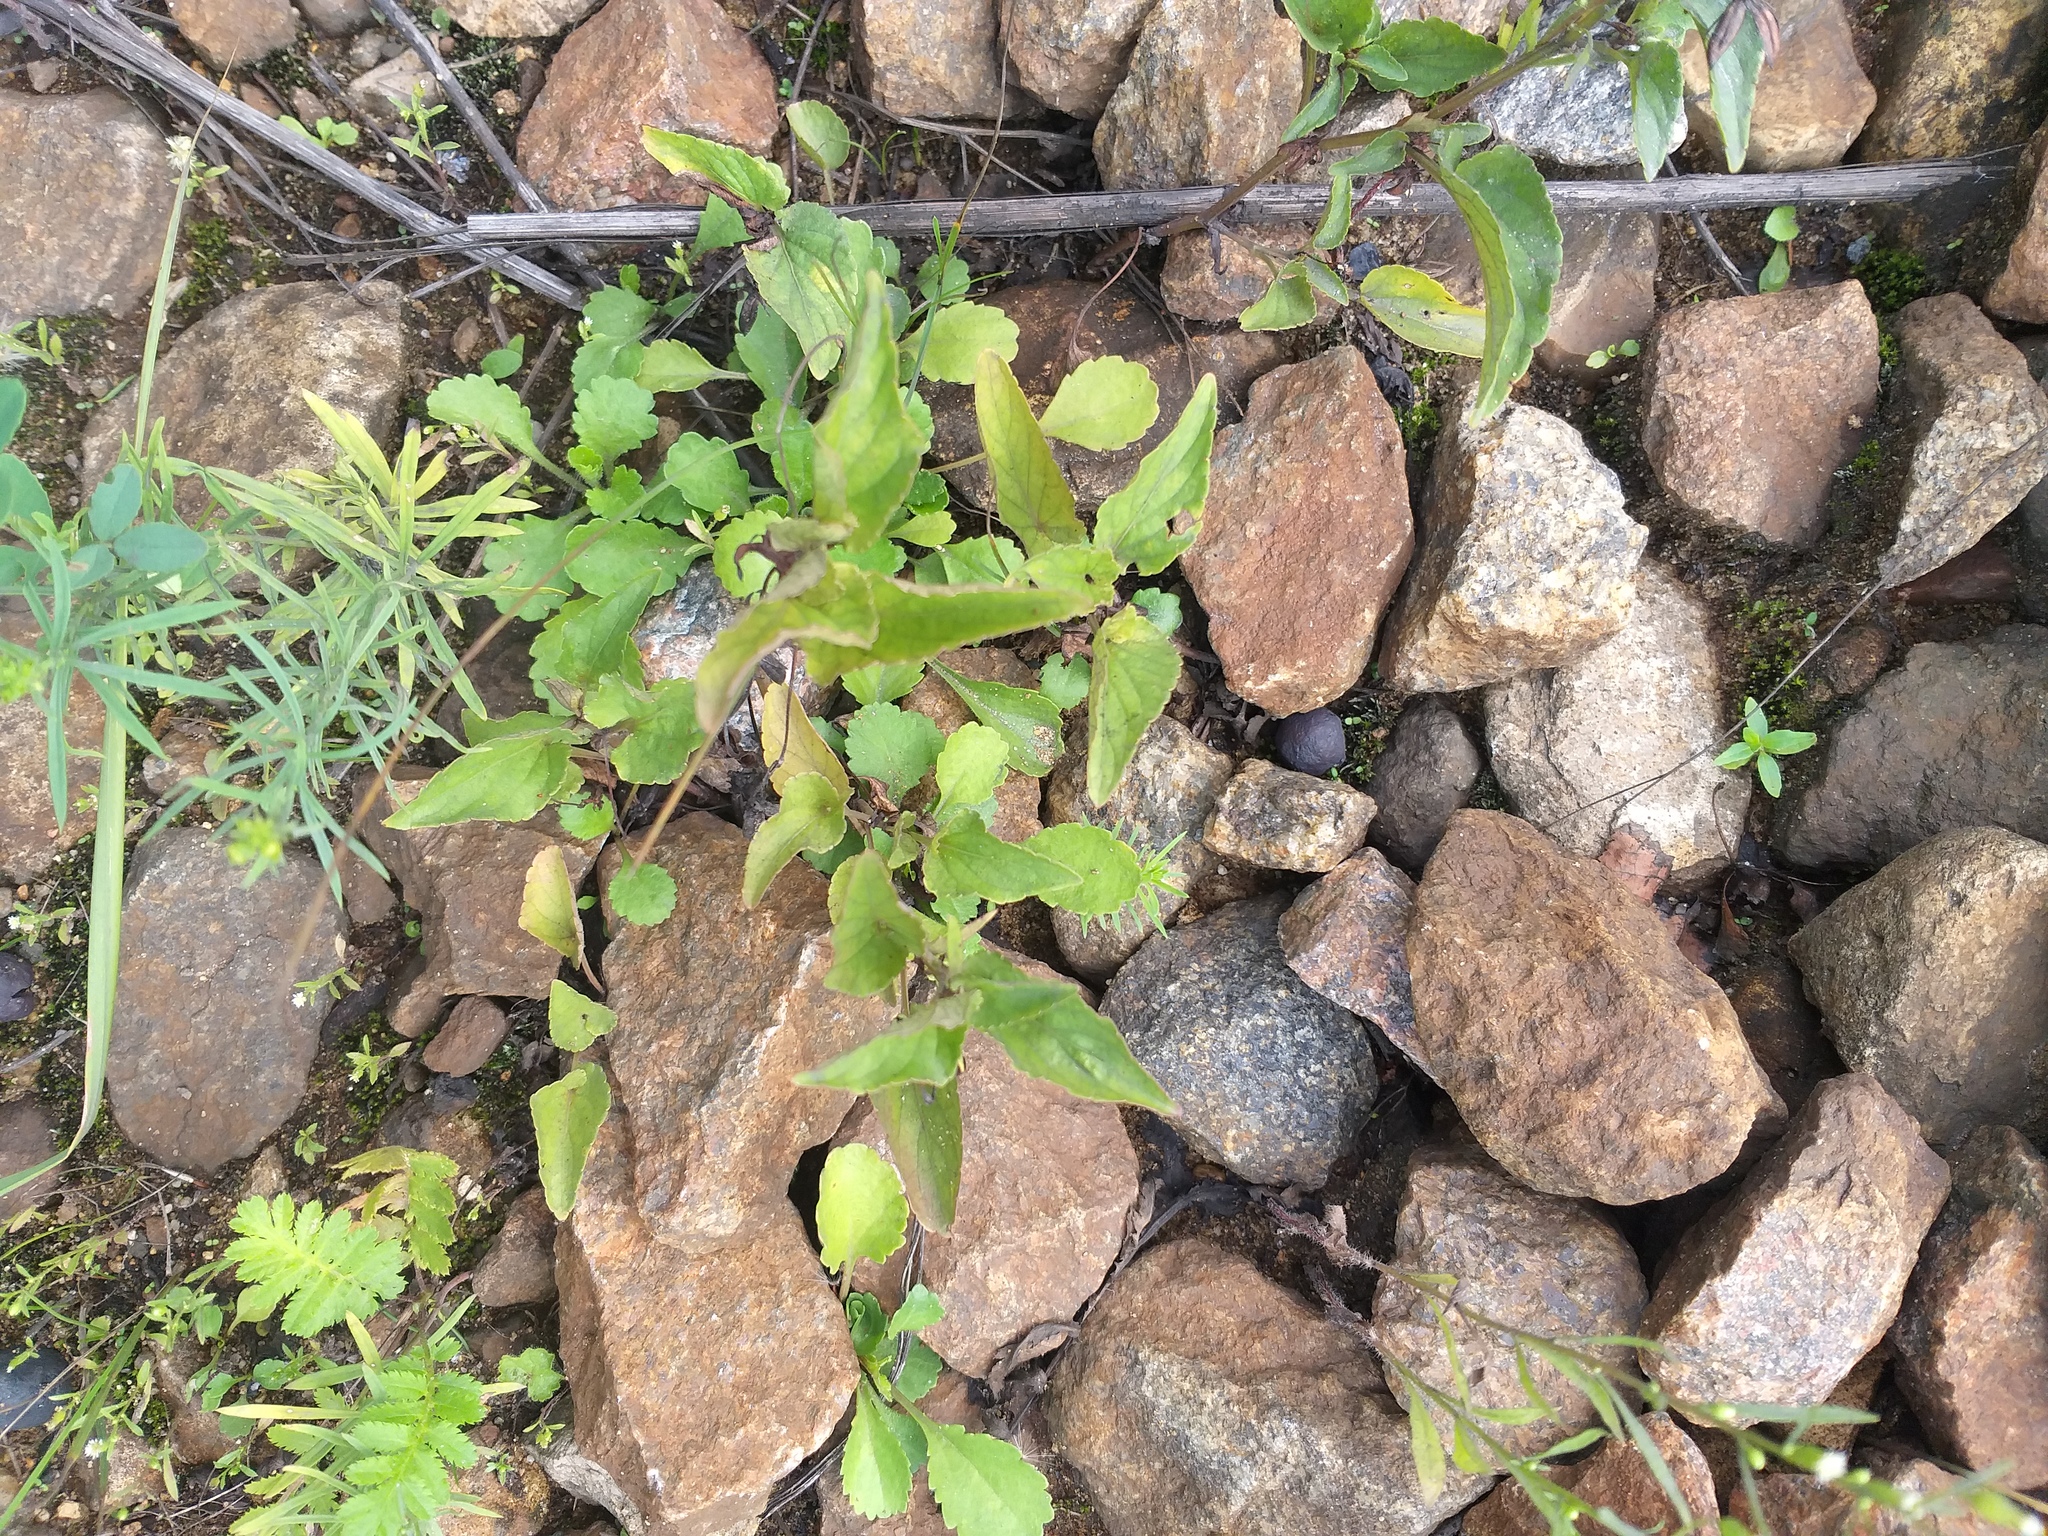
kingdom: Plantae
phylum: Tracheophyta
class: Magnoliopsida
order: Malpighiales
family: Violaceae
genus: Viola
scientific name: Viola canina
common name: Heath dog-violet
